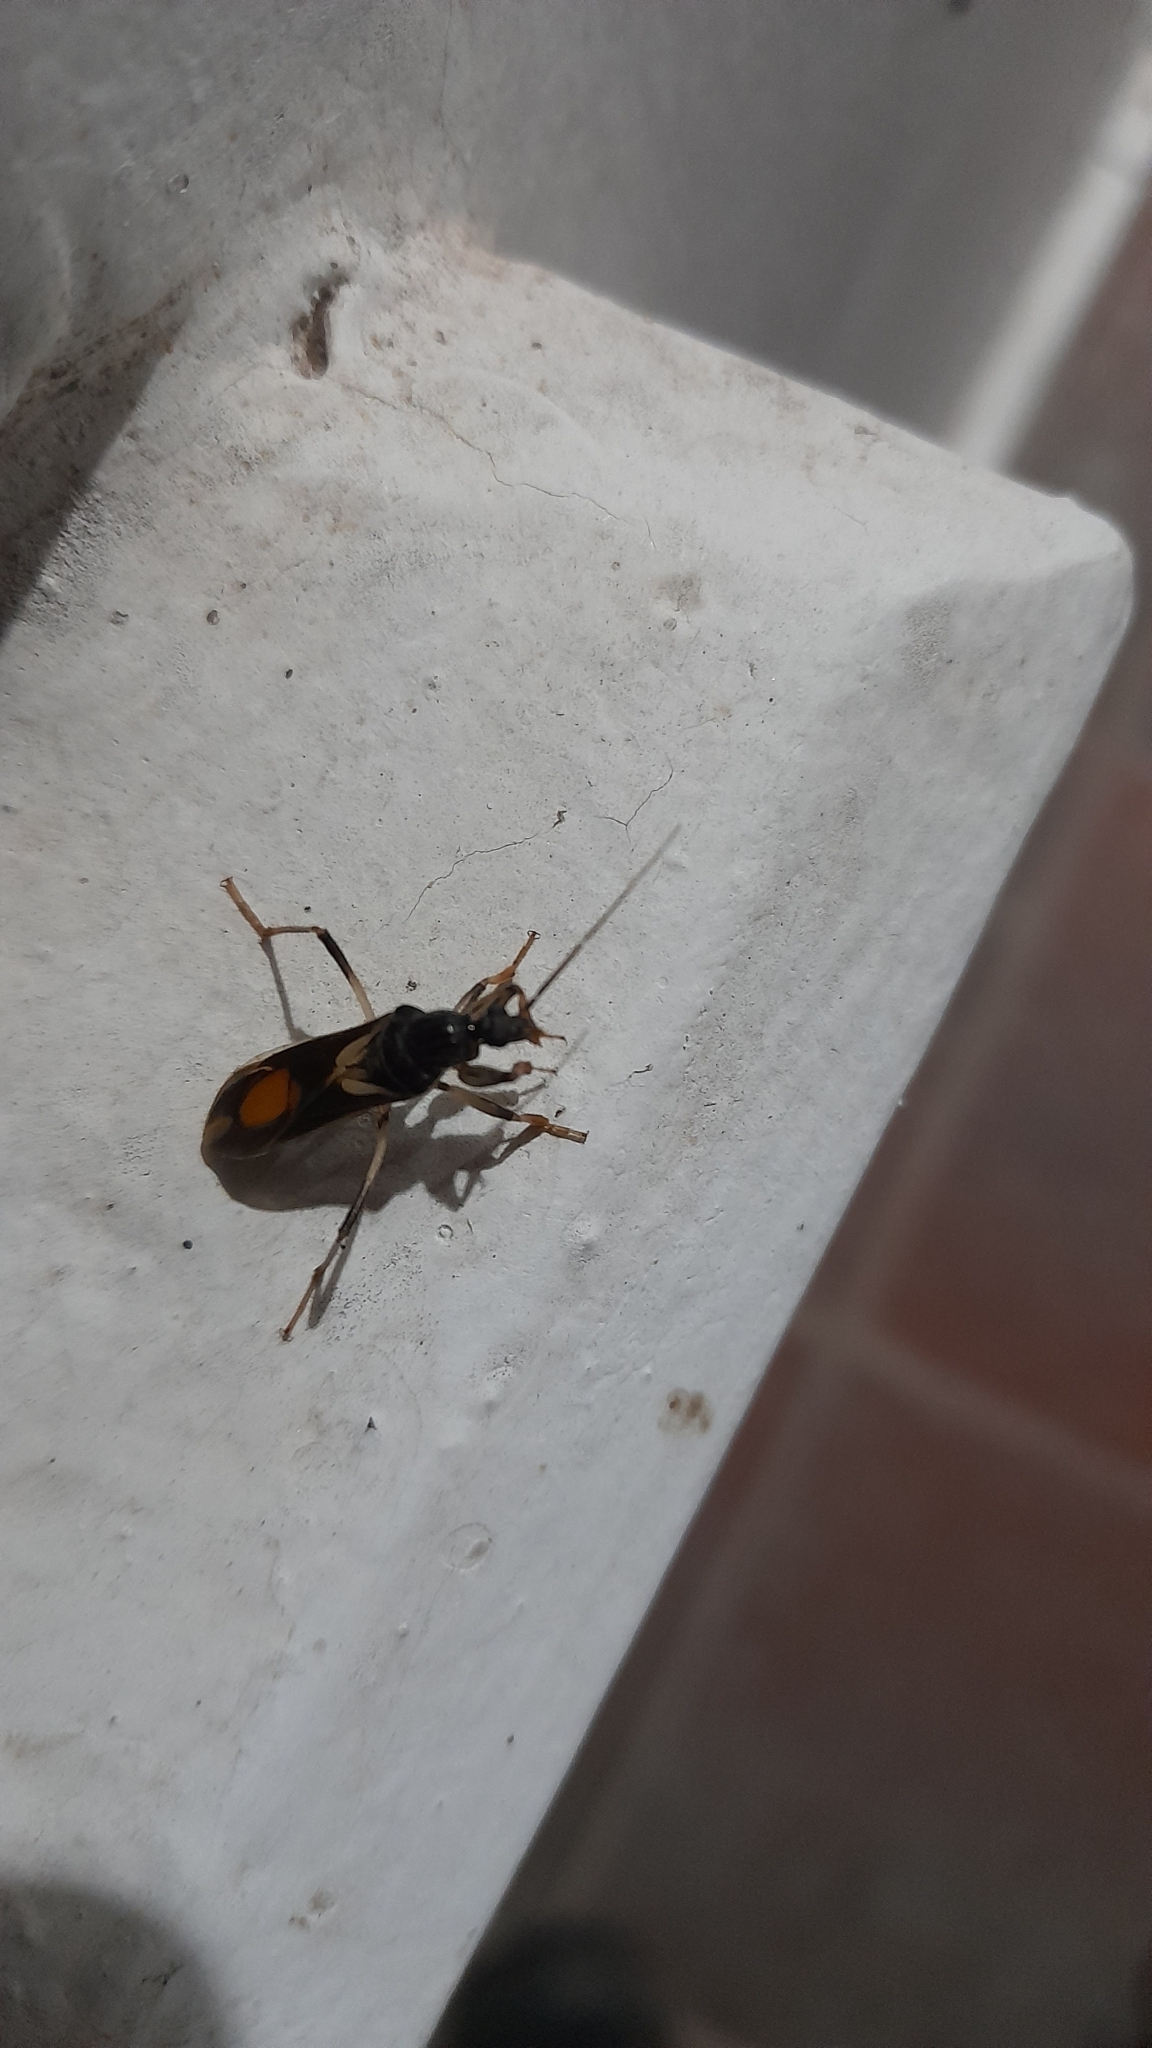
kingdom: Animalia
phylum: Arthropoda
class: Insecta
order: Hemiptera
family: Reduviidae
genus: Rasahus
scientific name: Rasahus hamatus
